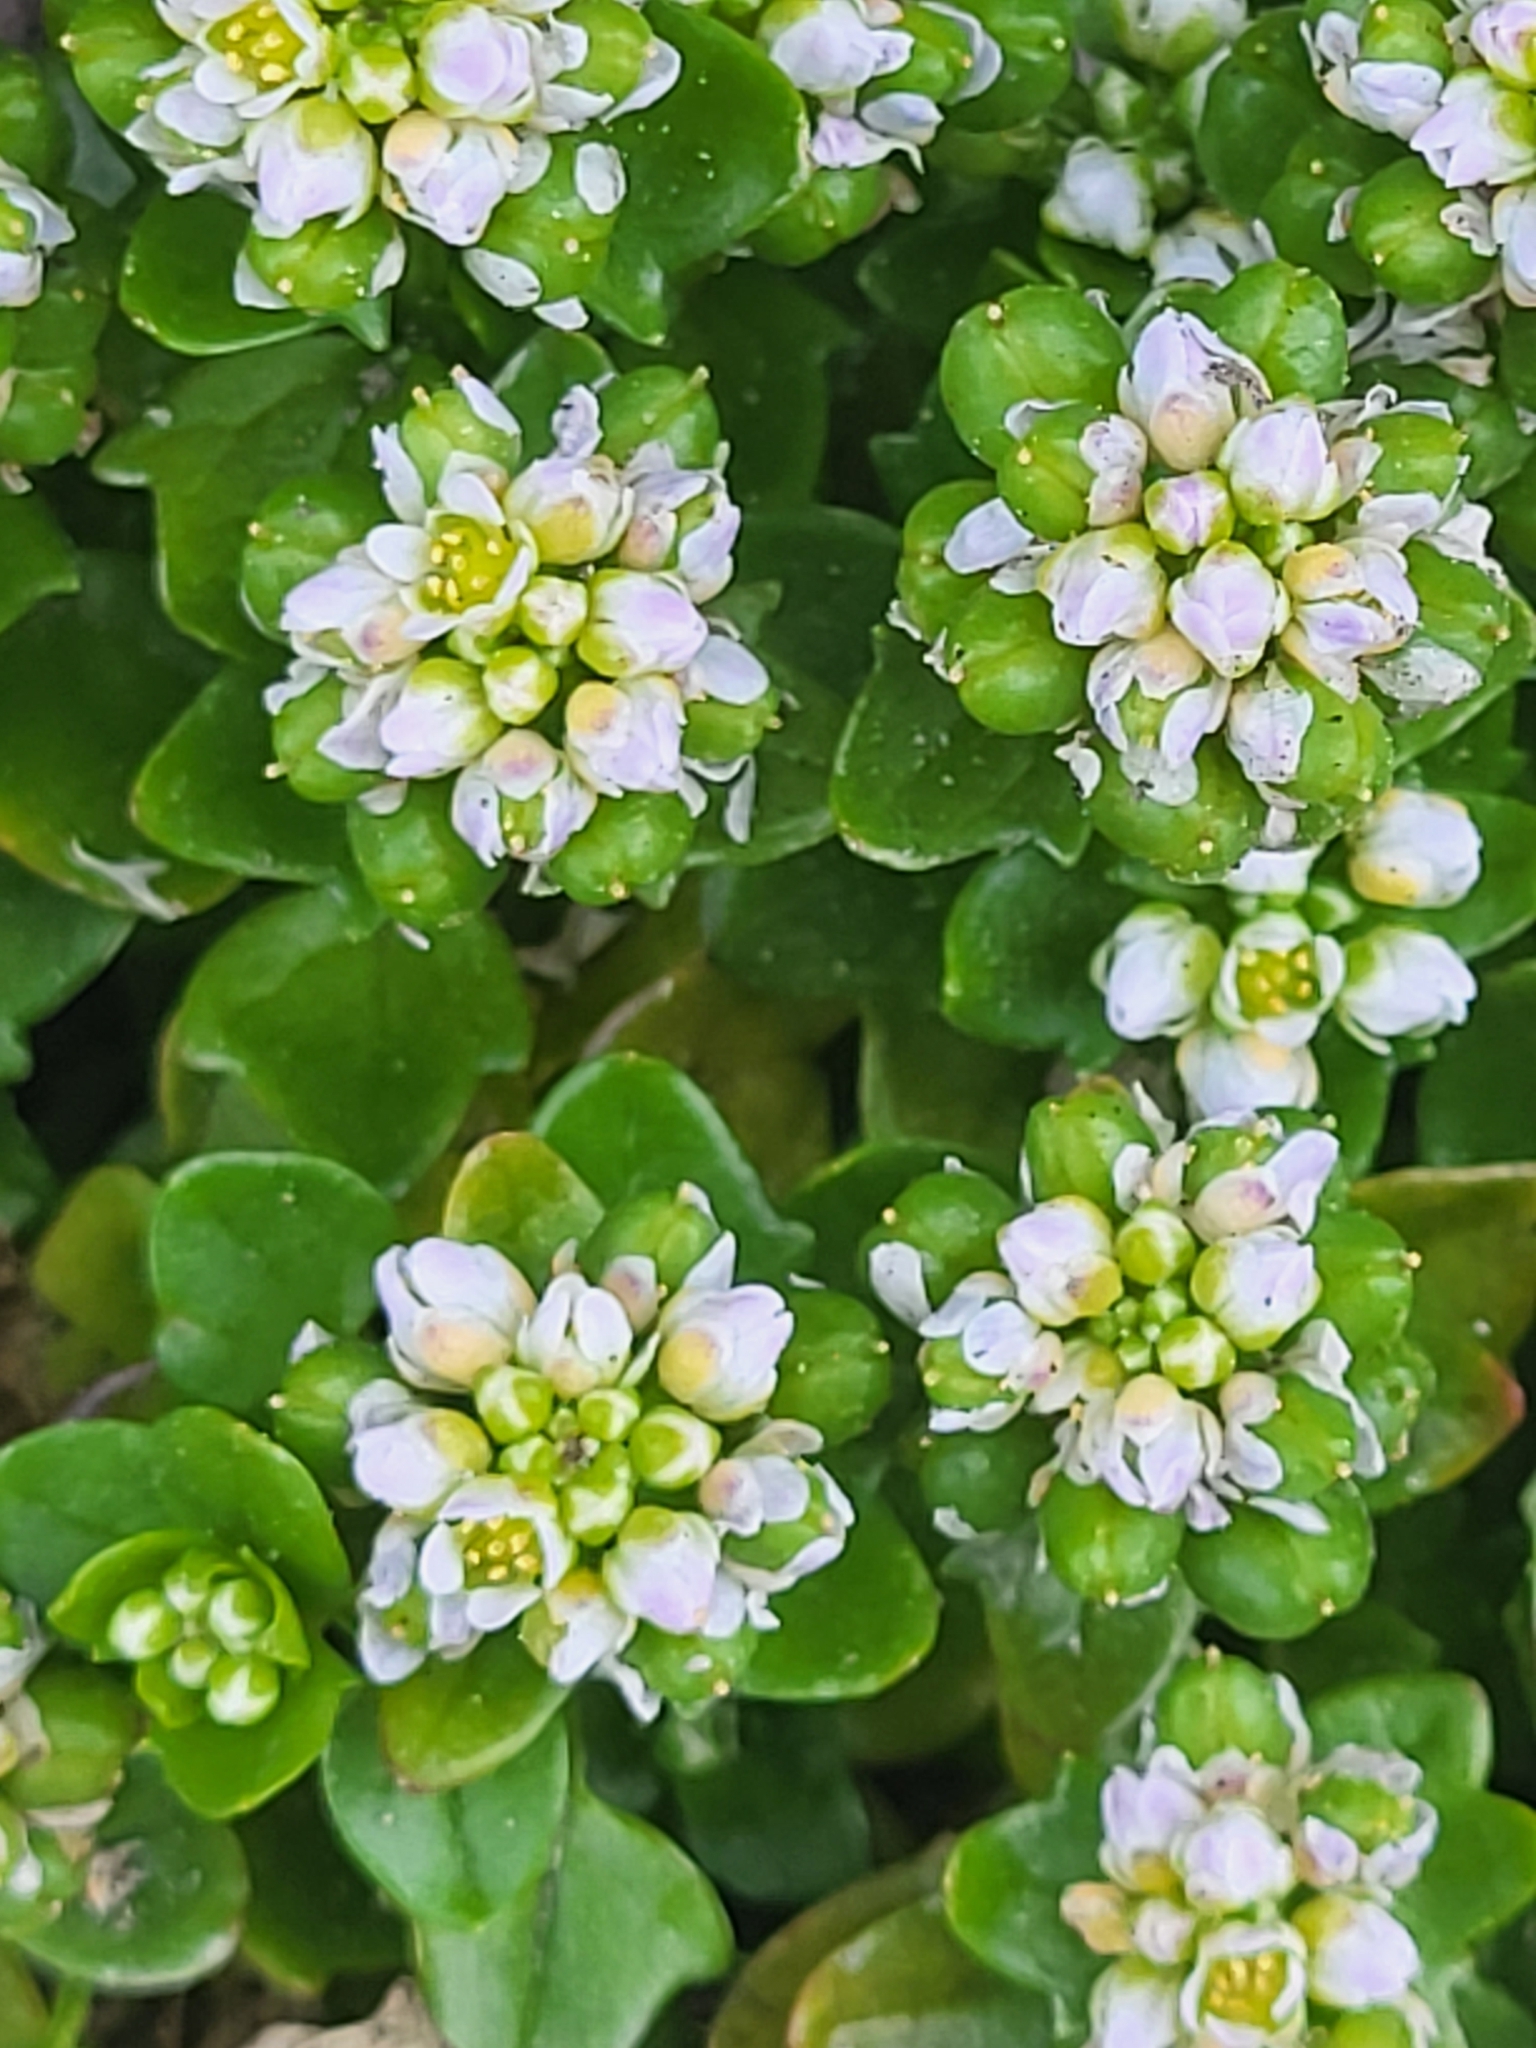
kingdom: Plantae
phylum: Tracheophyta
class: Magnoliopsida
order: Brassicales
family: Brassicaceae
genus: Cochlearia
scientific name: Cochlearia danica
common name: Early scurvygrass
